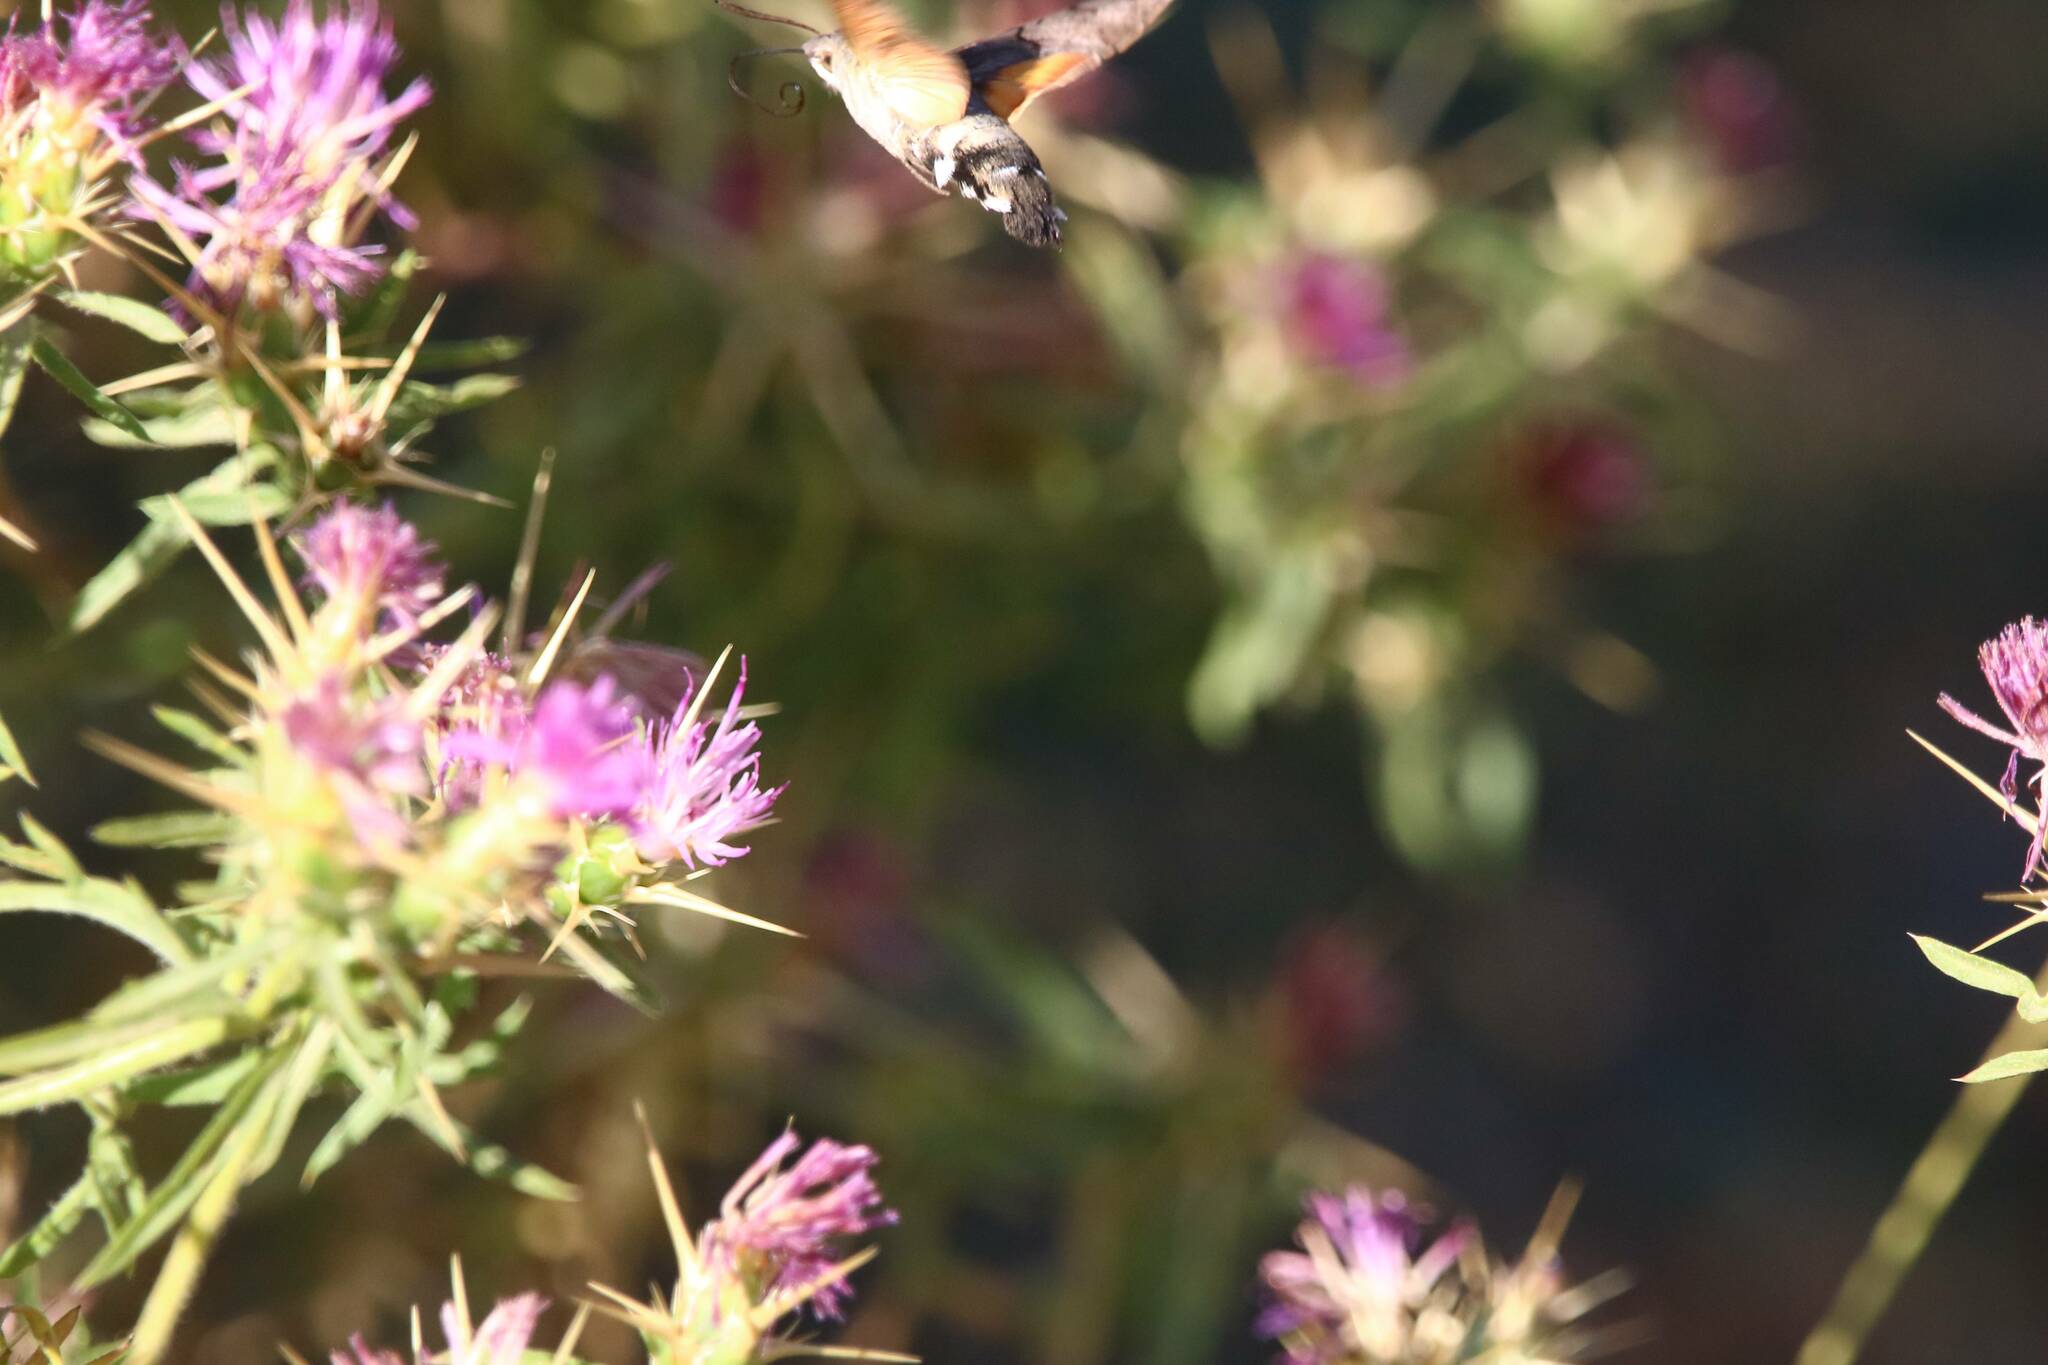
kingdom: Plantae
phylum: Tracheophyta
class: Magnoliopsida
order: Asterales
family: Asteraceae
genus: Centaurea
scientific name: Centaurea calcitrapa
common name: Red star-thistle
